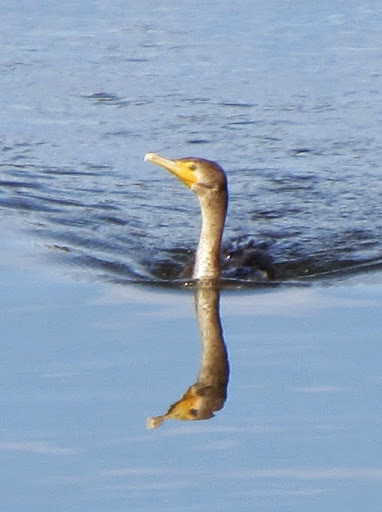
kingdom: Animalia
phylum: Chordata
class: Aves
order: Suliformes
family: Phalacrocoracidae
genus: Phalacrocorax
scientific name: Phalacrocorax auritus
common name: Double-crested cormorant
